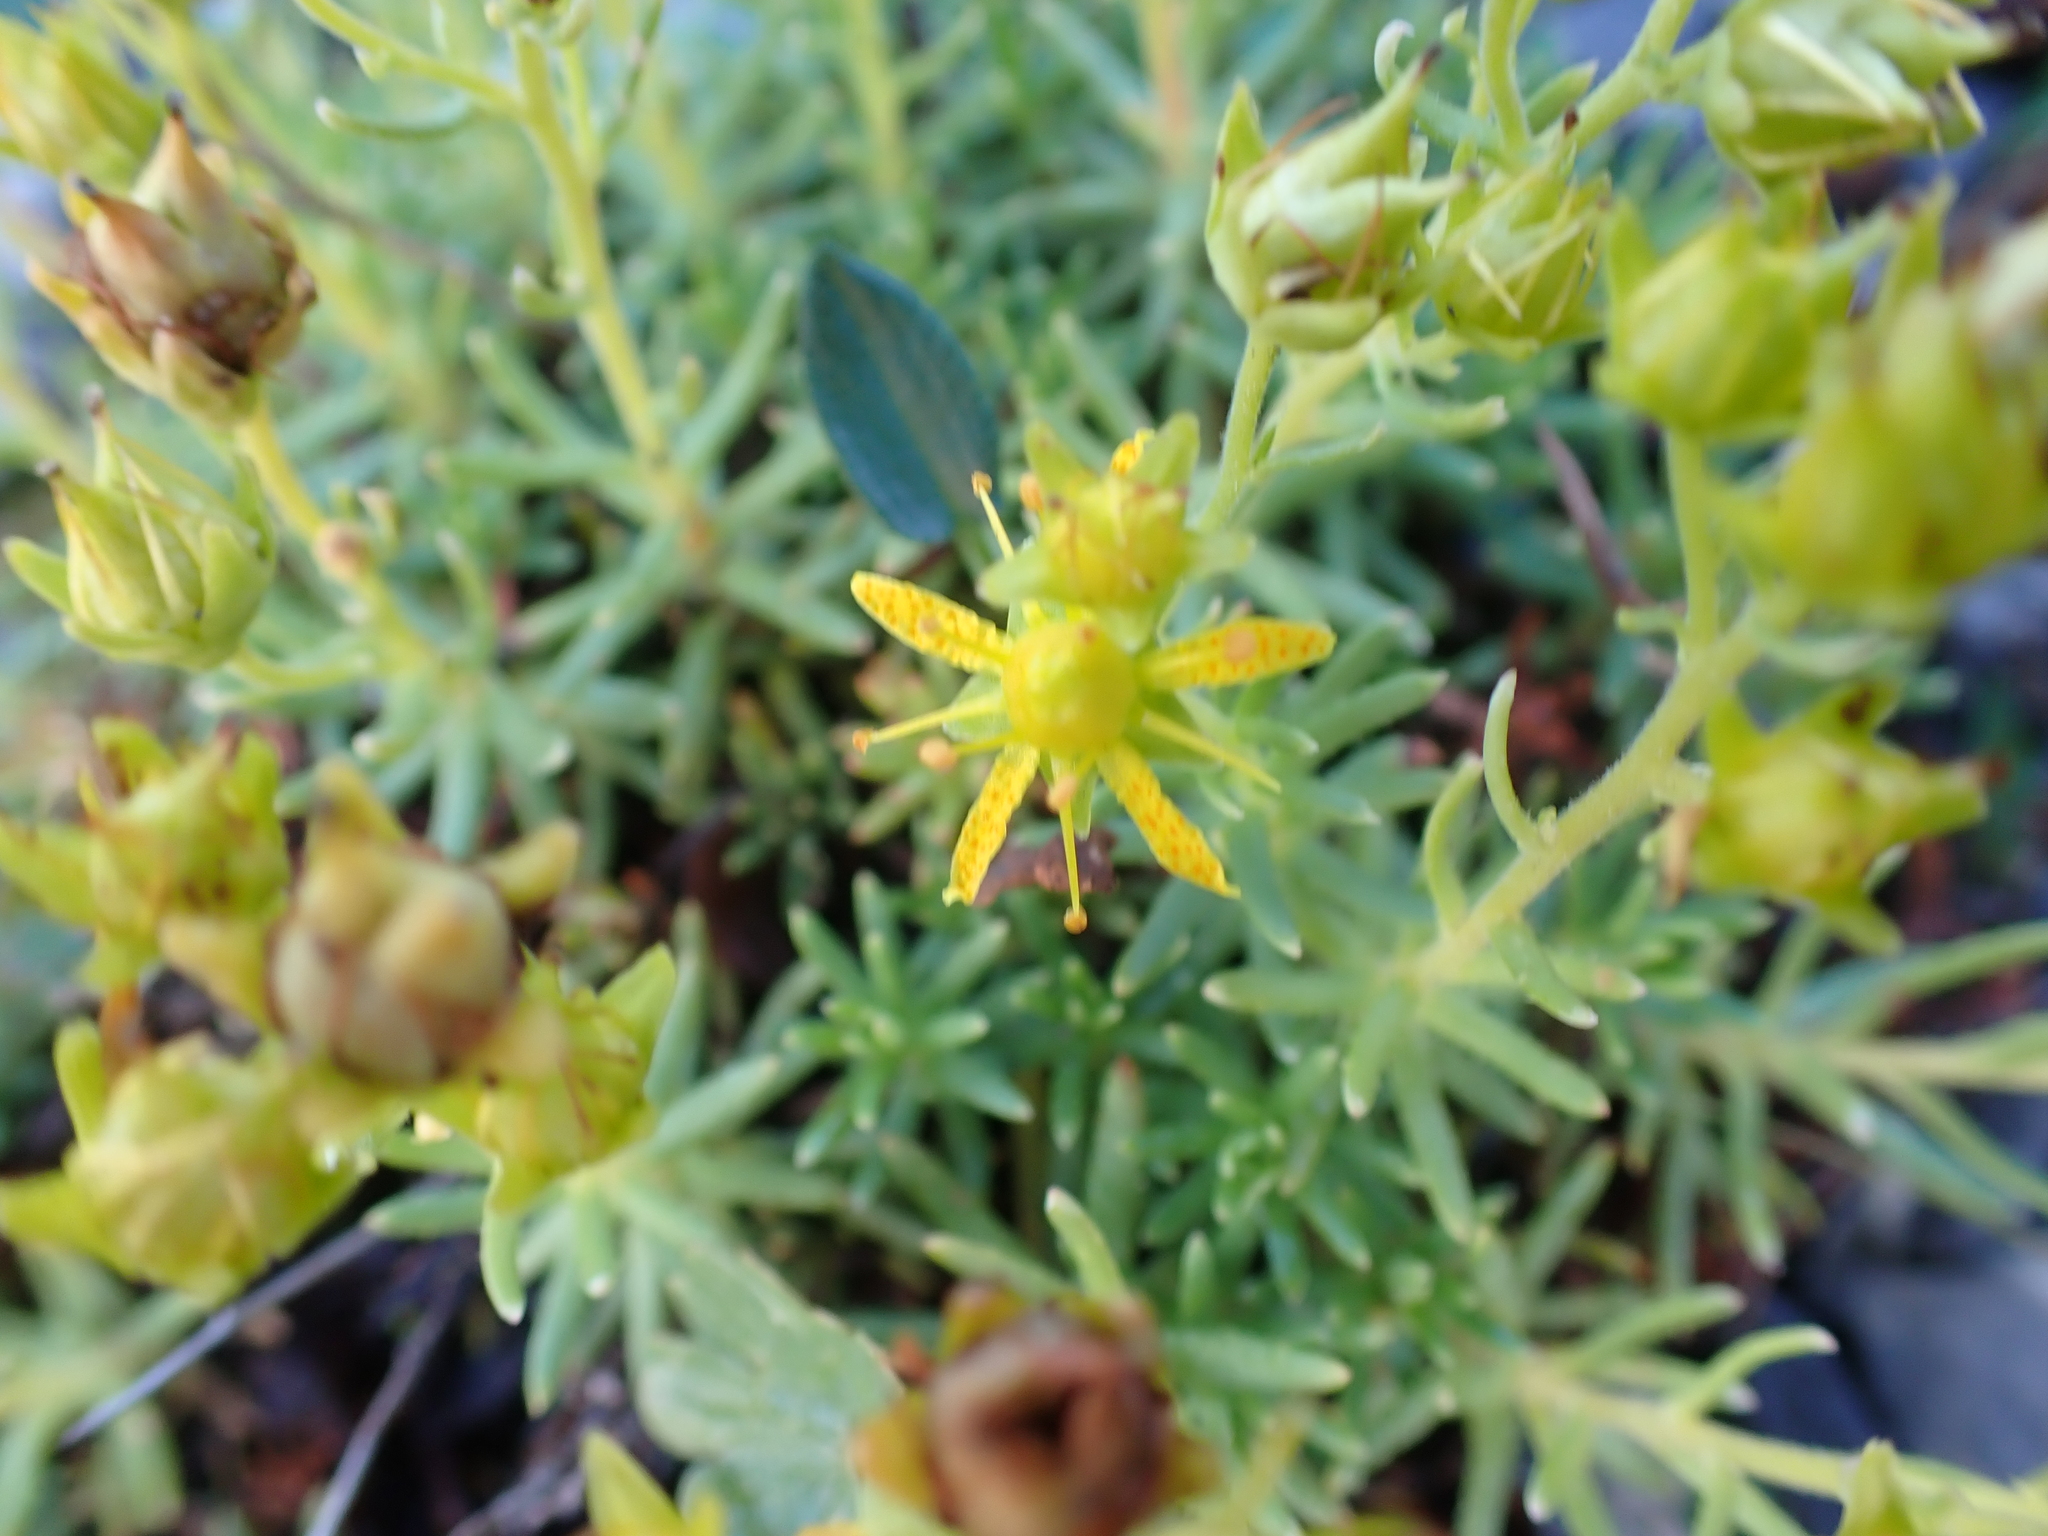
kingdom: Plantae
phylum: Tracheophyta
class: Magnoliopsida
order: Saxifragales
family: Saxifragaceae
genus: Saxifraga
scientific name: Saxifraga aizoides
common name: Yellow mountain saxifrage
